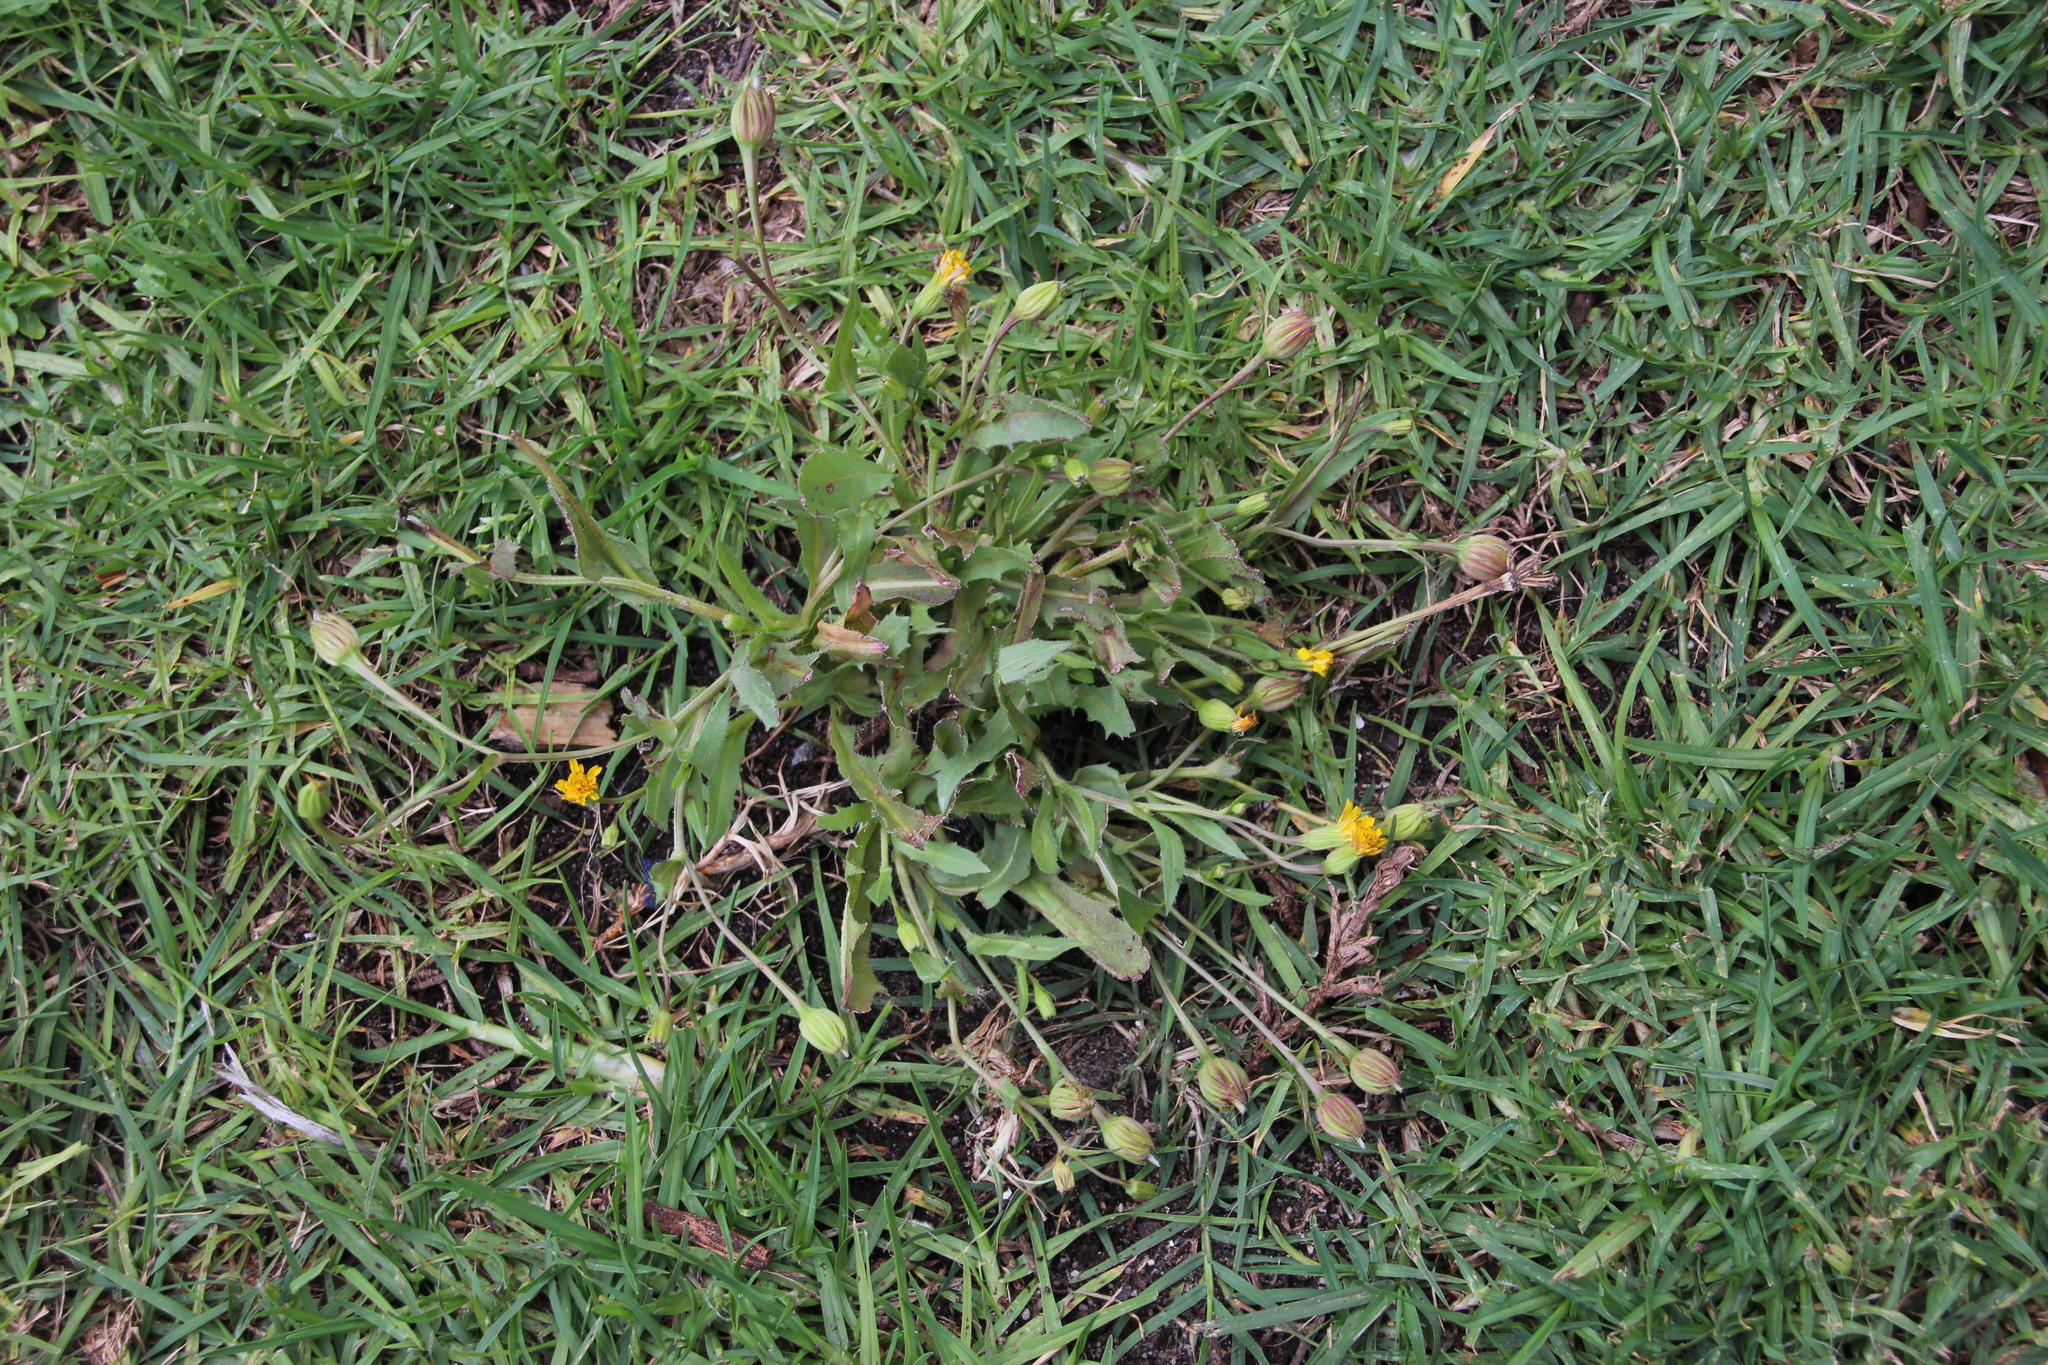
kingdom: Plantae
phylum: Tracheophyta
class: Magnoliopsida
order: Asterales
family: Asteraceae
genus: Hedypnois
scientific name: Hedypnois rhagadioloides
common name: Cretan weed
